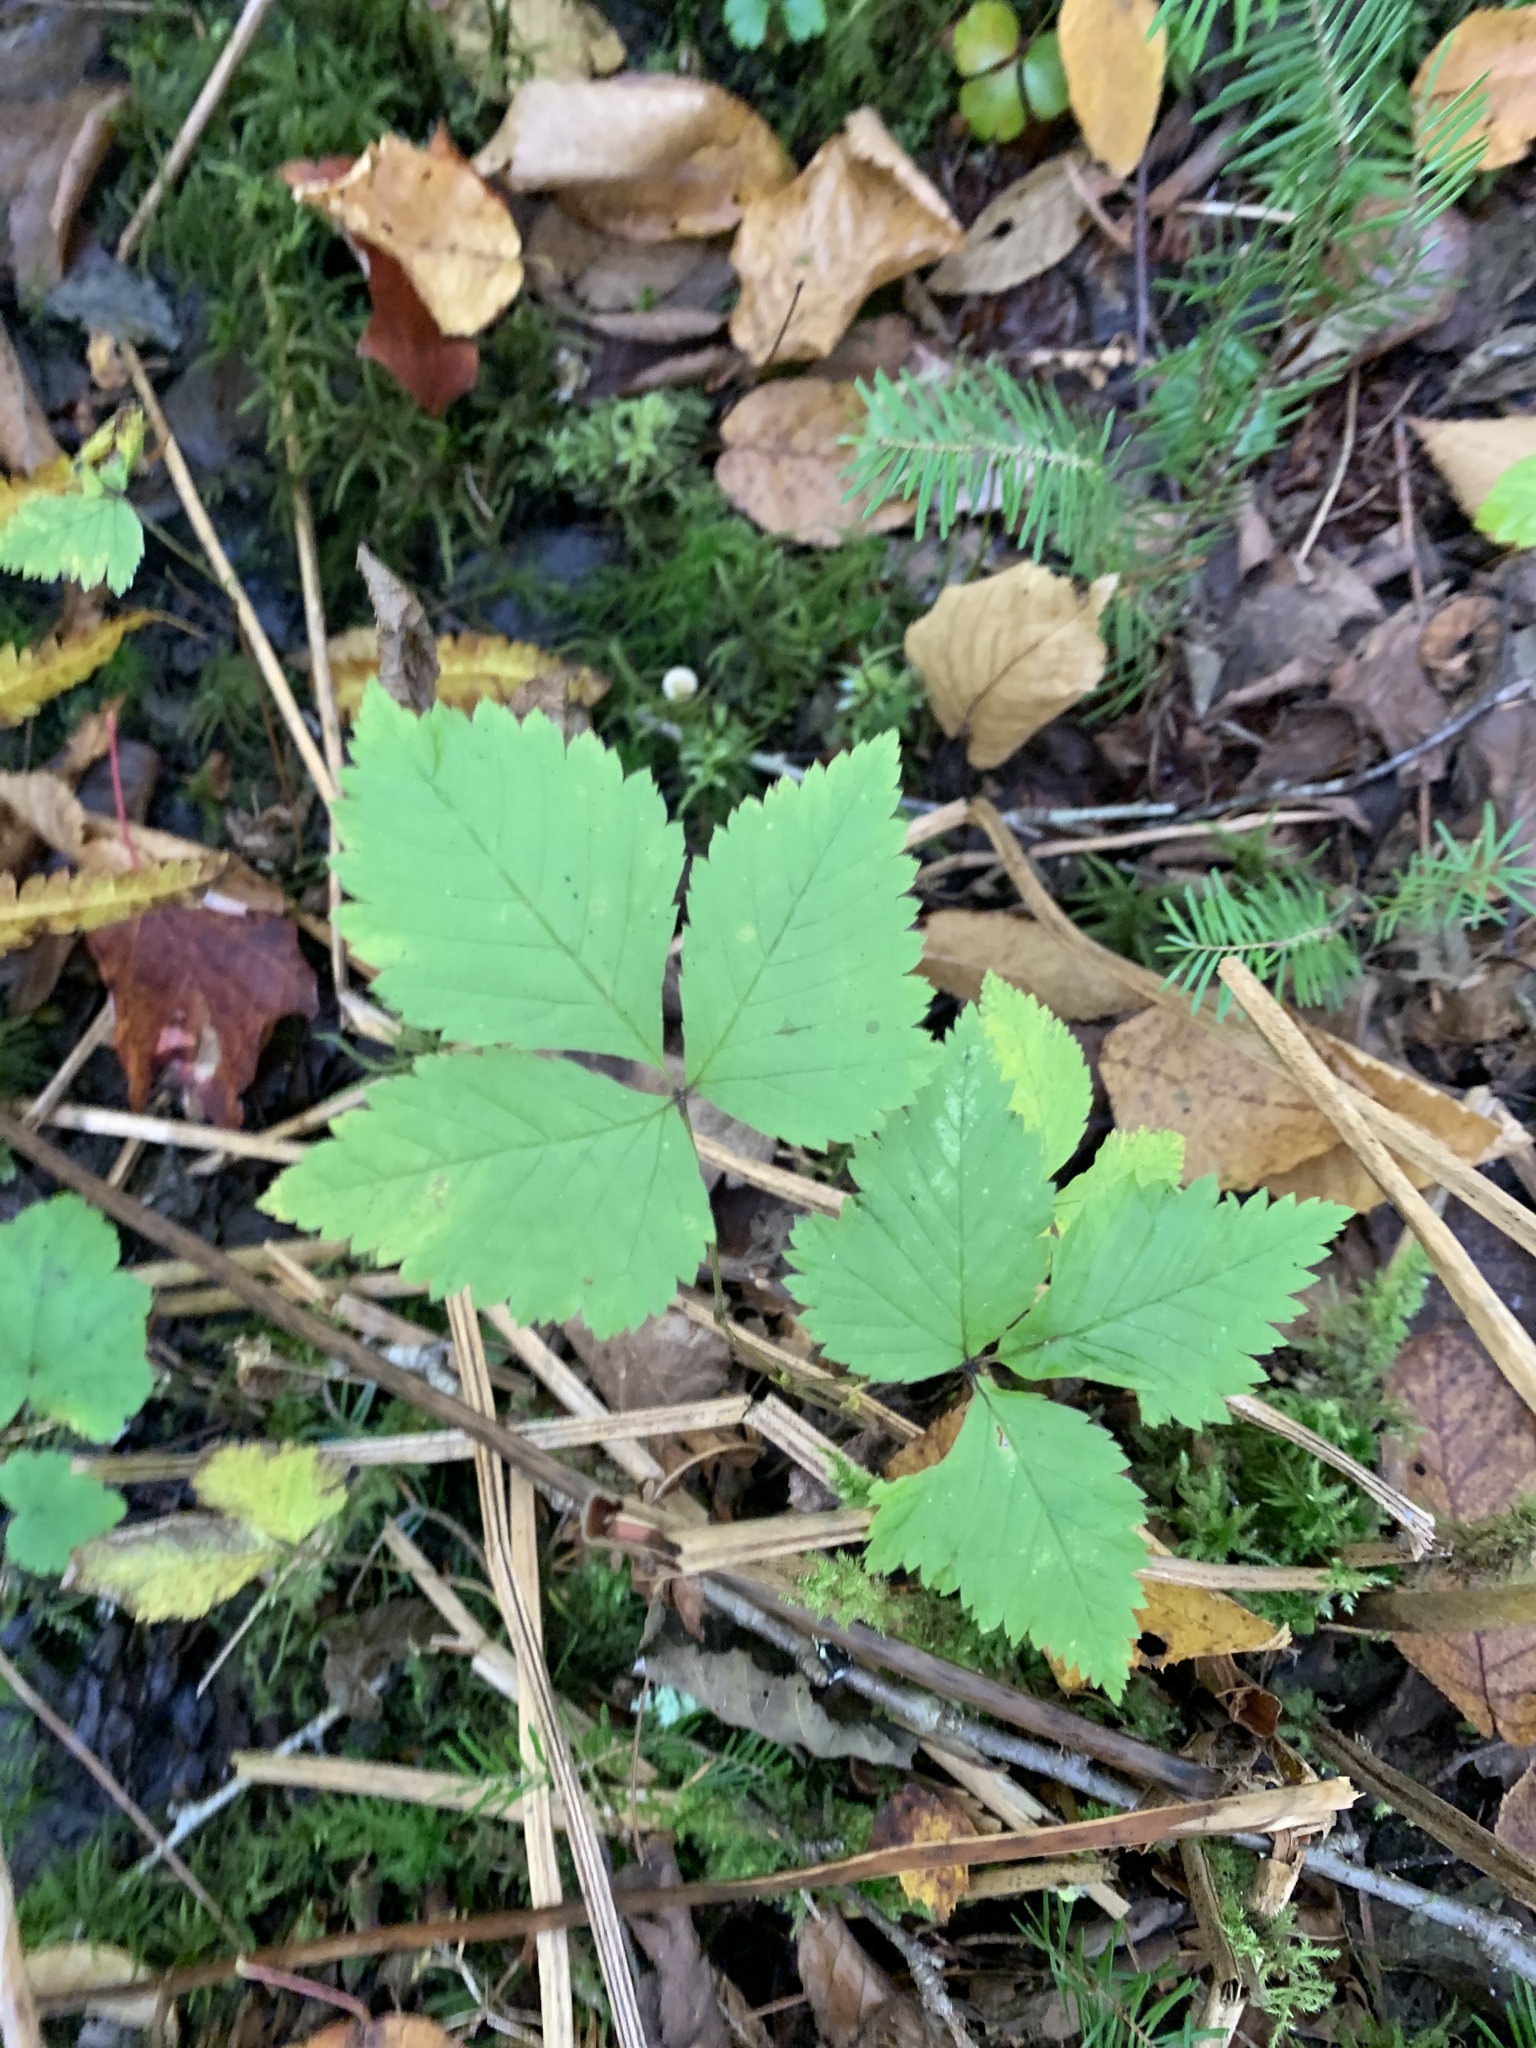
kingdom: Plantae
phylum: Tracheophyta
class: Magnoliopsida
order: Rosales
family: Rosaceae
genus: Rubus
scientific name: Rubus pubescens
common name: Dwarf raspberry
